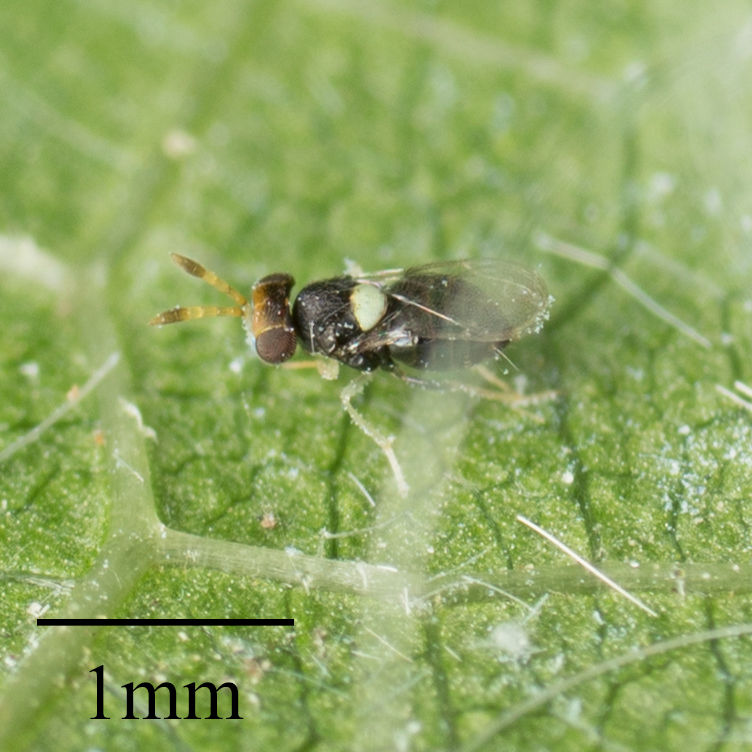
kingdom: Animalia
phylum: Arthropoda
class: Insecta
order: Hymenoptera
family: Aphelinidae
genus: Encarsiella
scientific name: Encarsiella noyesi
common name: Parasitoid wasp
